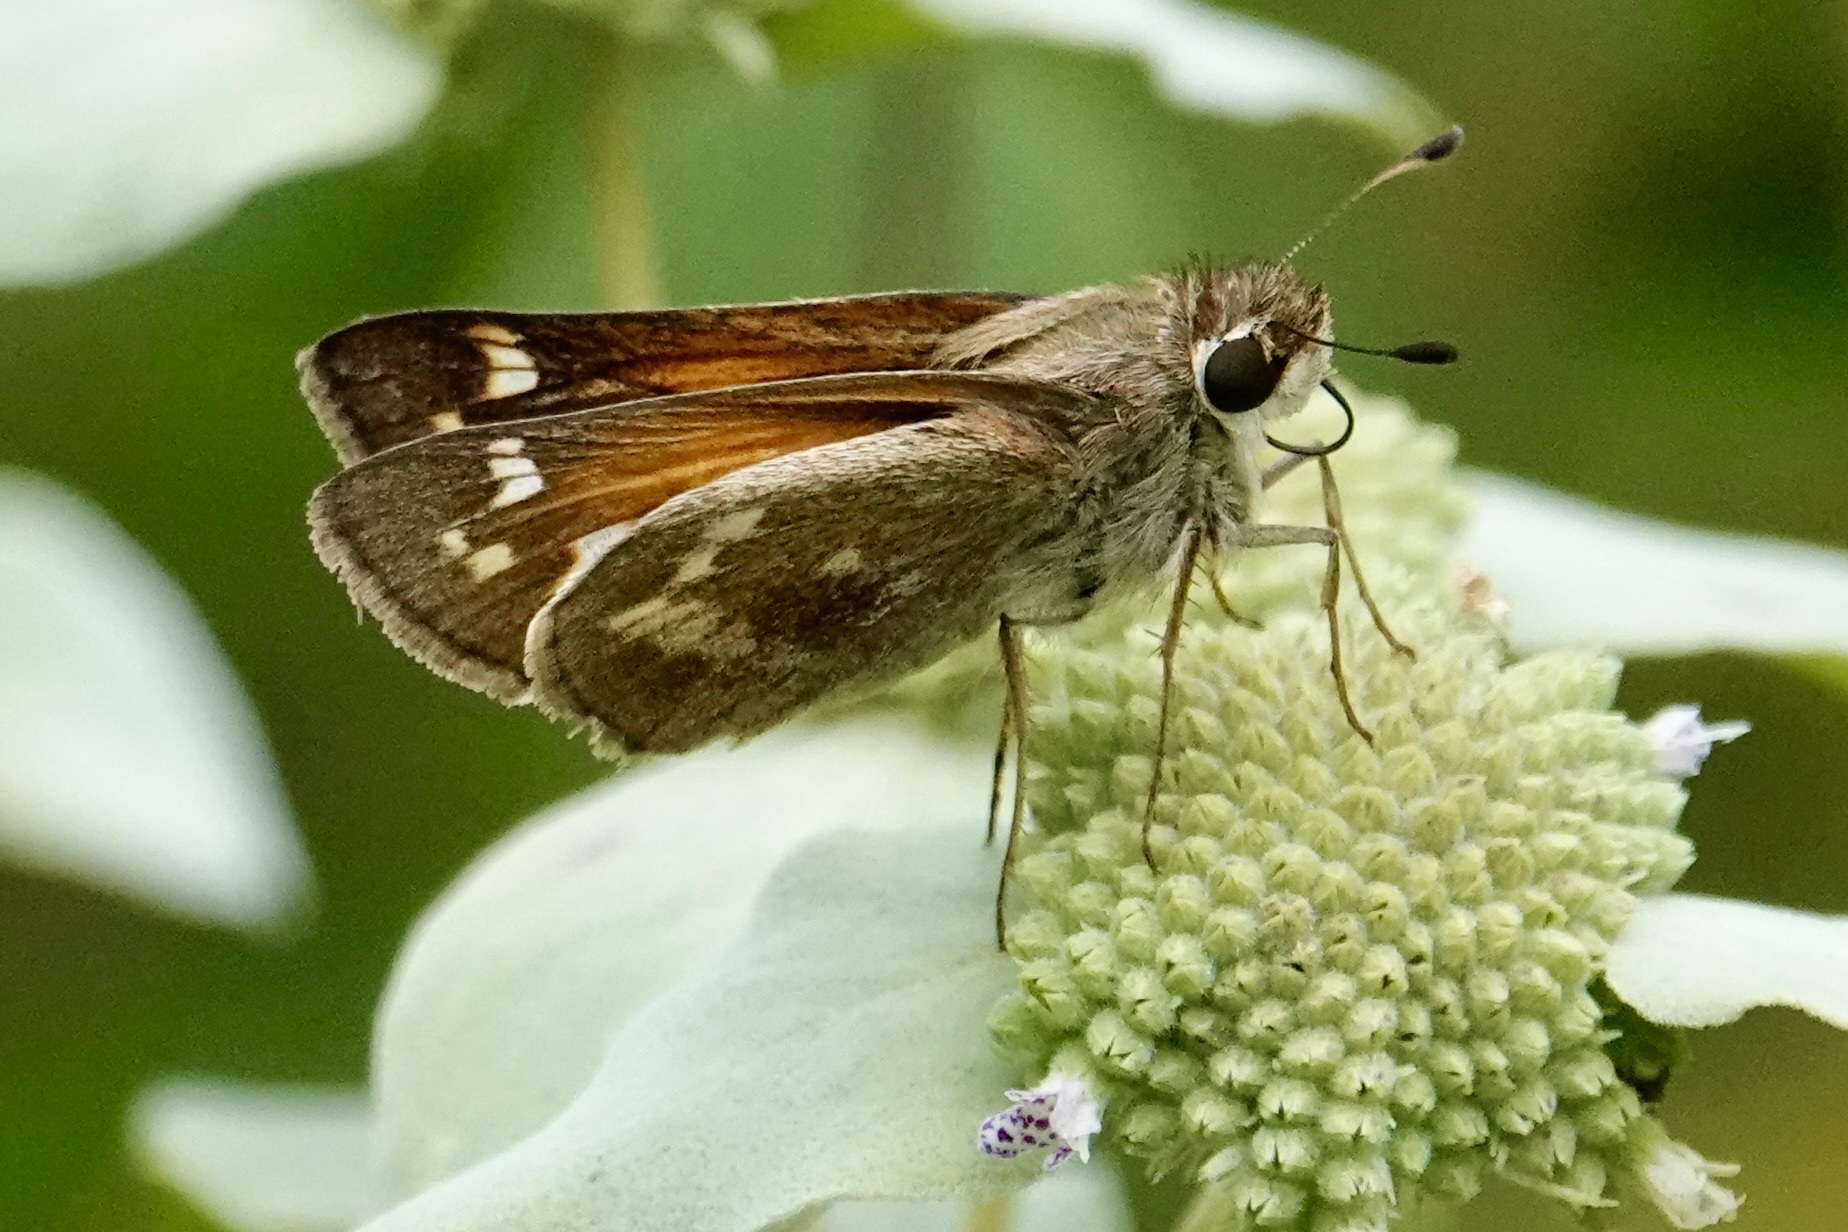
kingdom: Animalia
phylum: Arthropoda
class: Insecta
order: Lepidoptera
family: Hesperiidae
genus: Atalopedes
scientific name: Atalopedes
